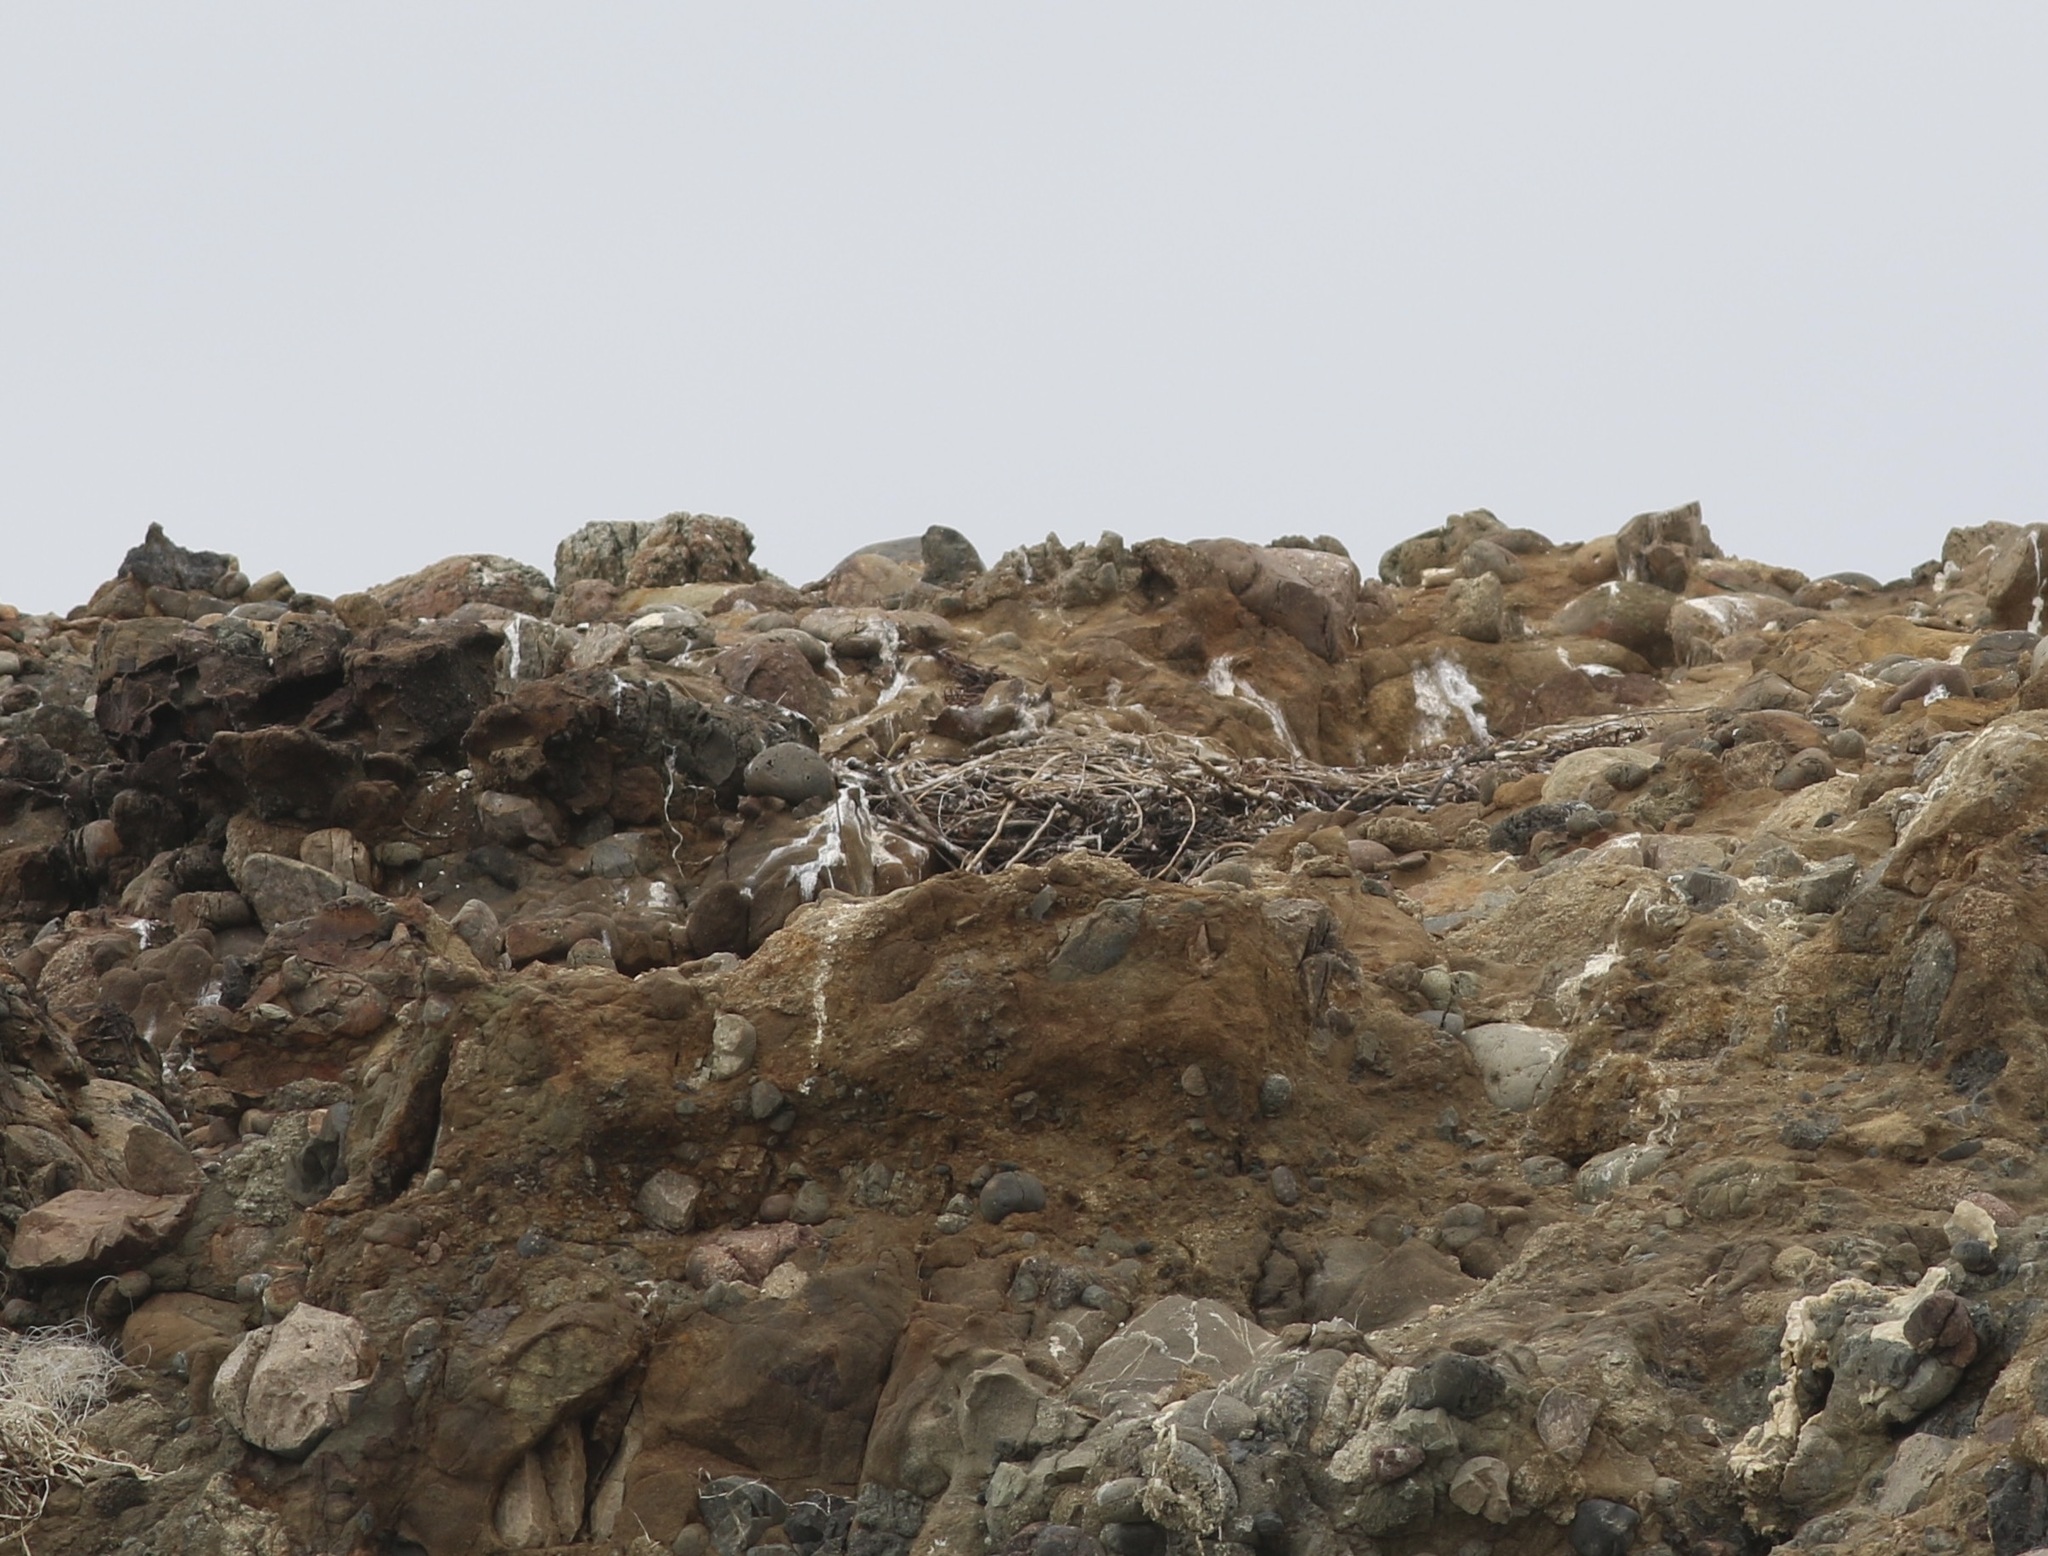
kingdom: Animalia
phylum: Chordata
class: Aves
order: Charadriiformes
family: Laridae
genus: Larus
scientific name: Larus occidentalis
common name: Western gull
